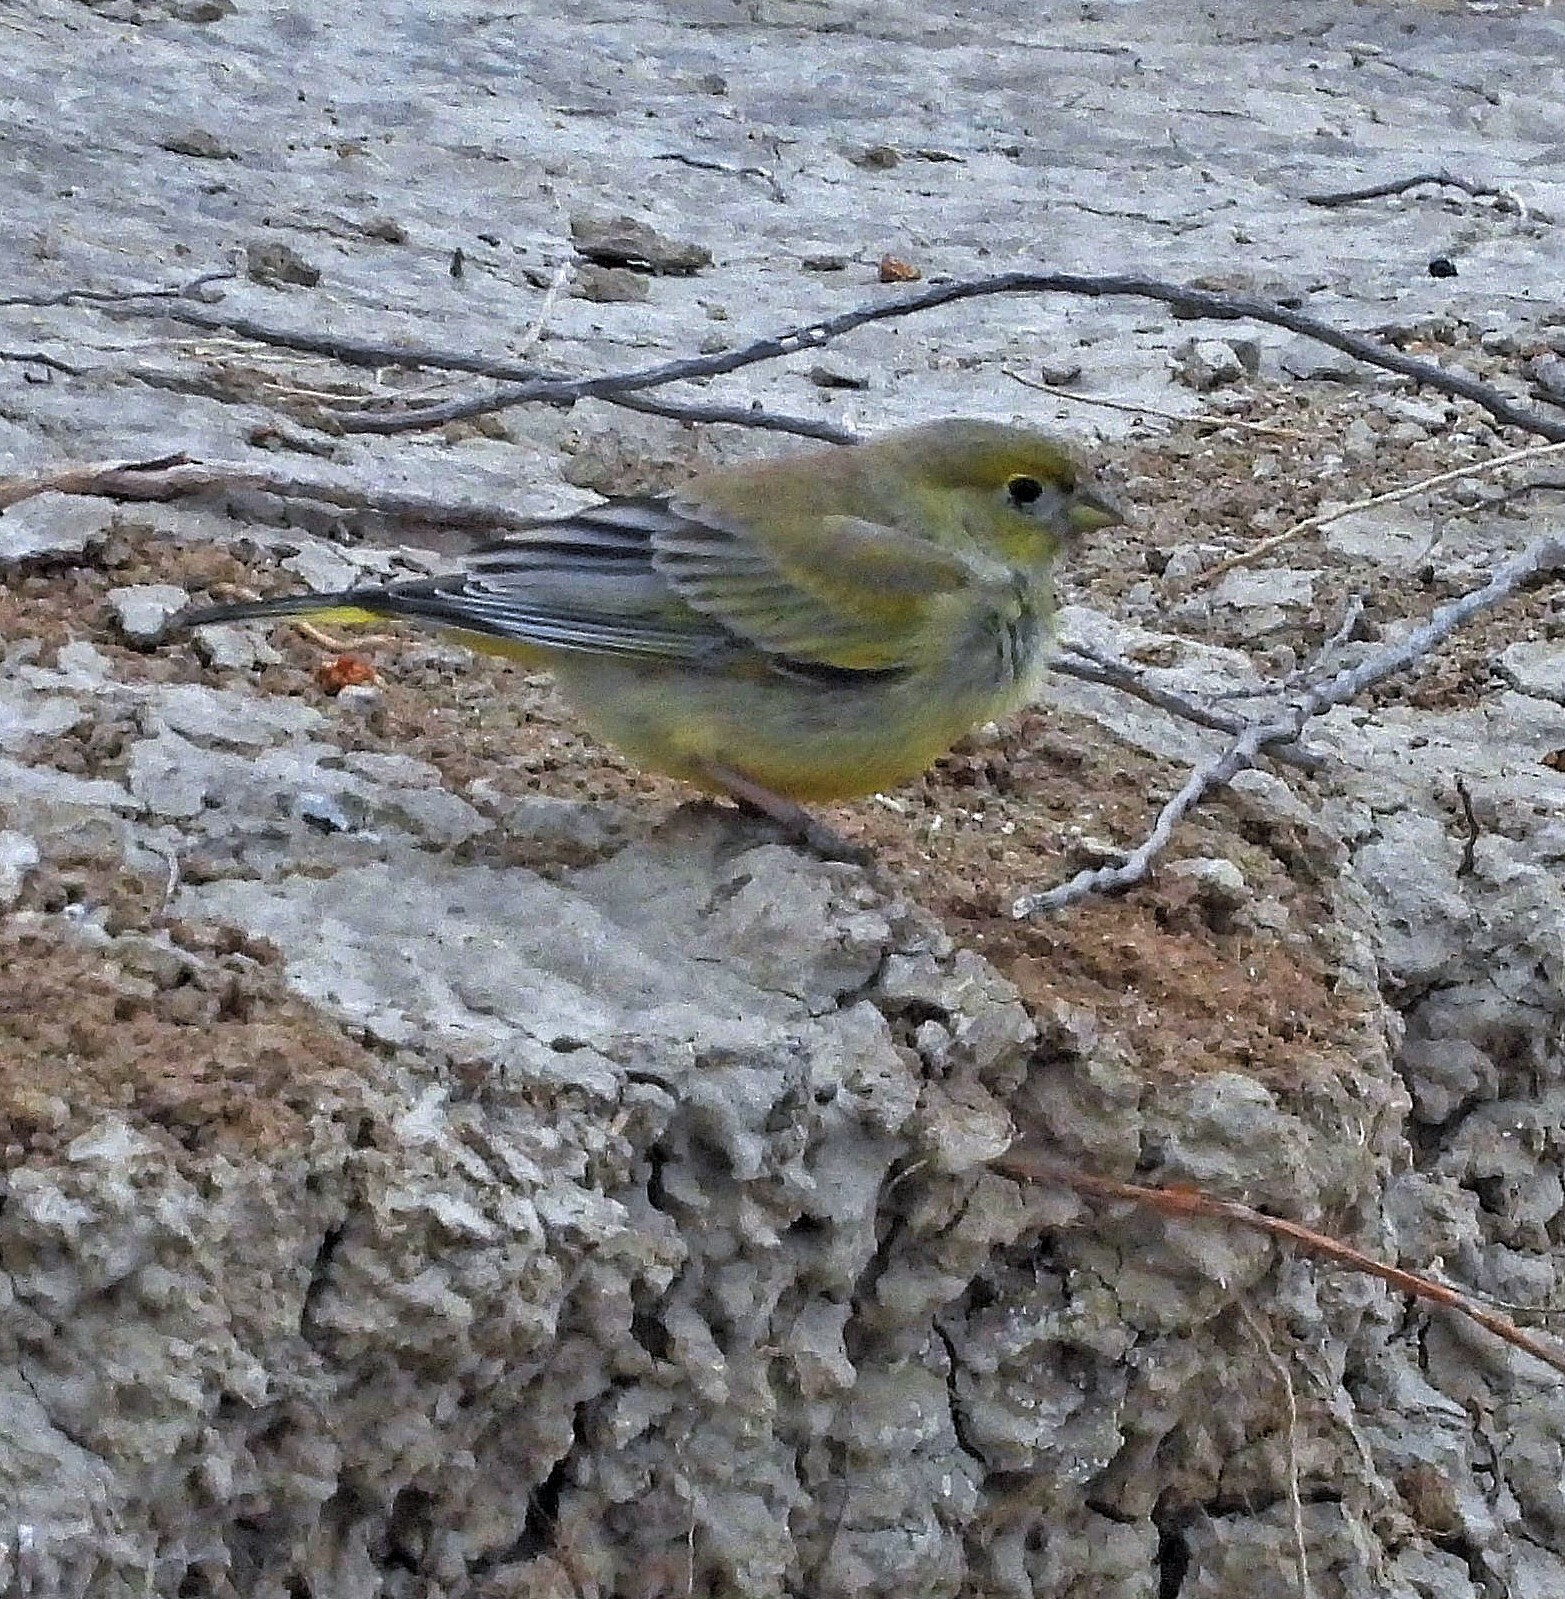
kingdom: Animalia
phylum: Chordata
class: Aves
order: Passeriformes
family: Thraupidae
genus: Sicalis
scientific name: Sicalis lebruni
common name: Patagonian yellow finch
